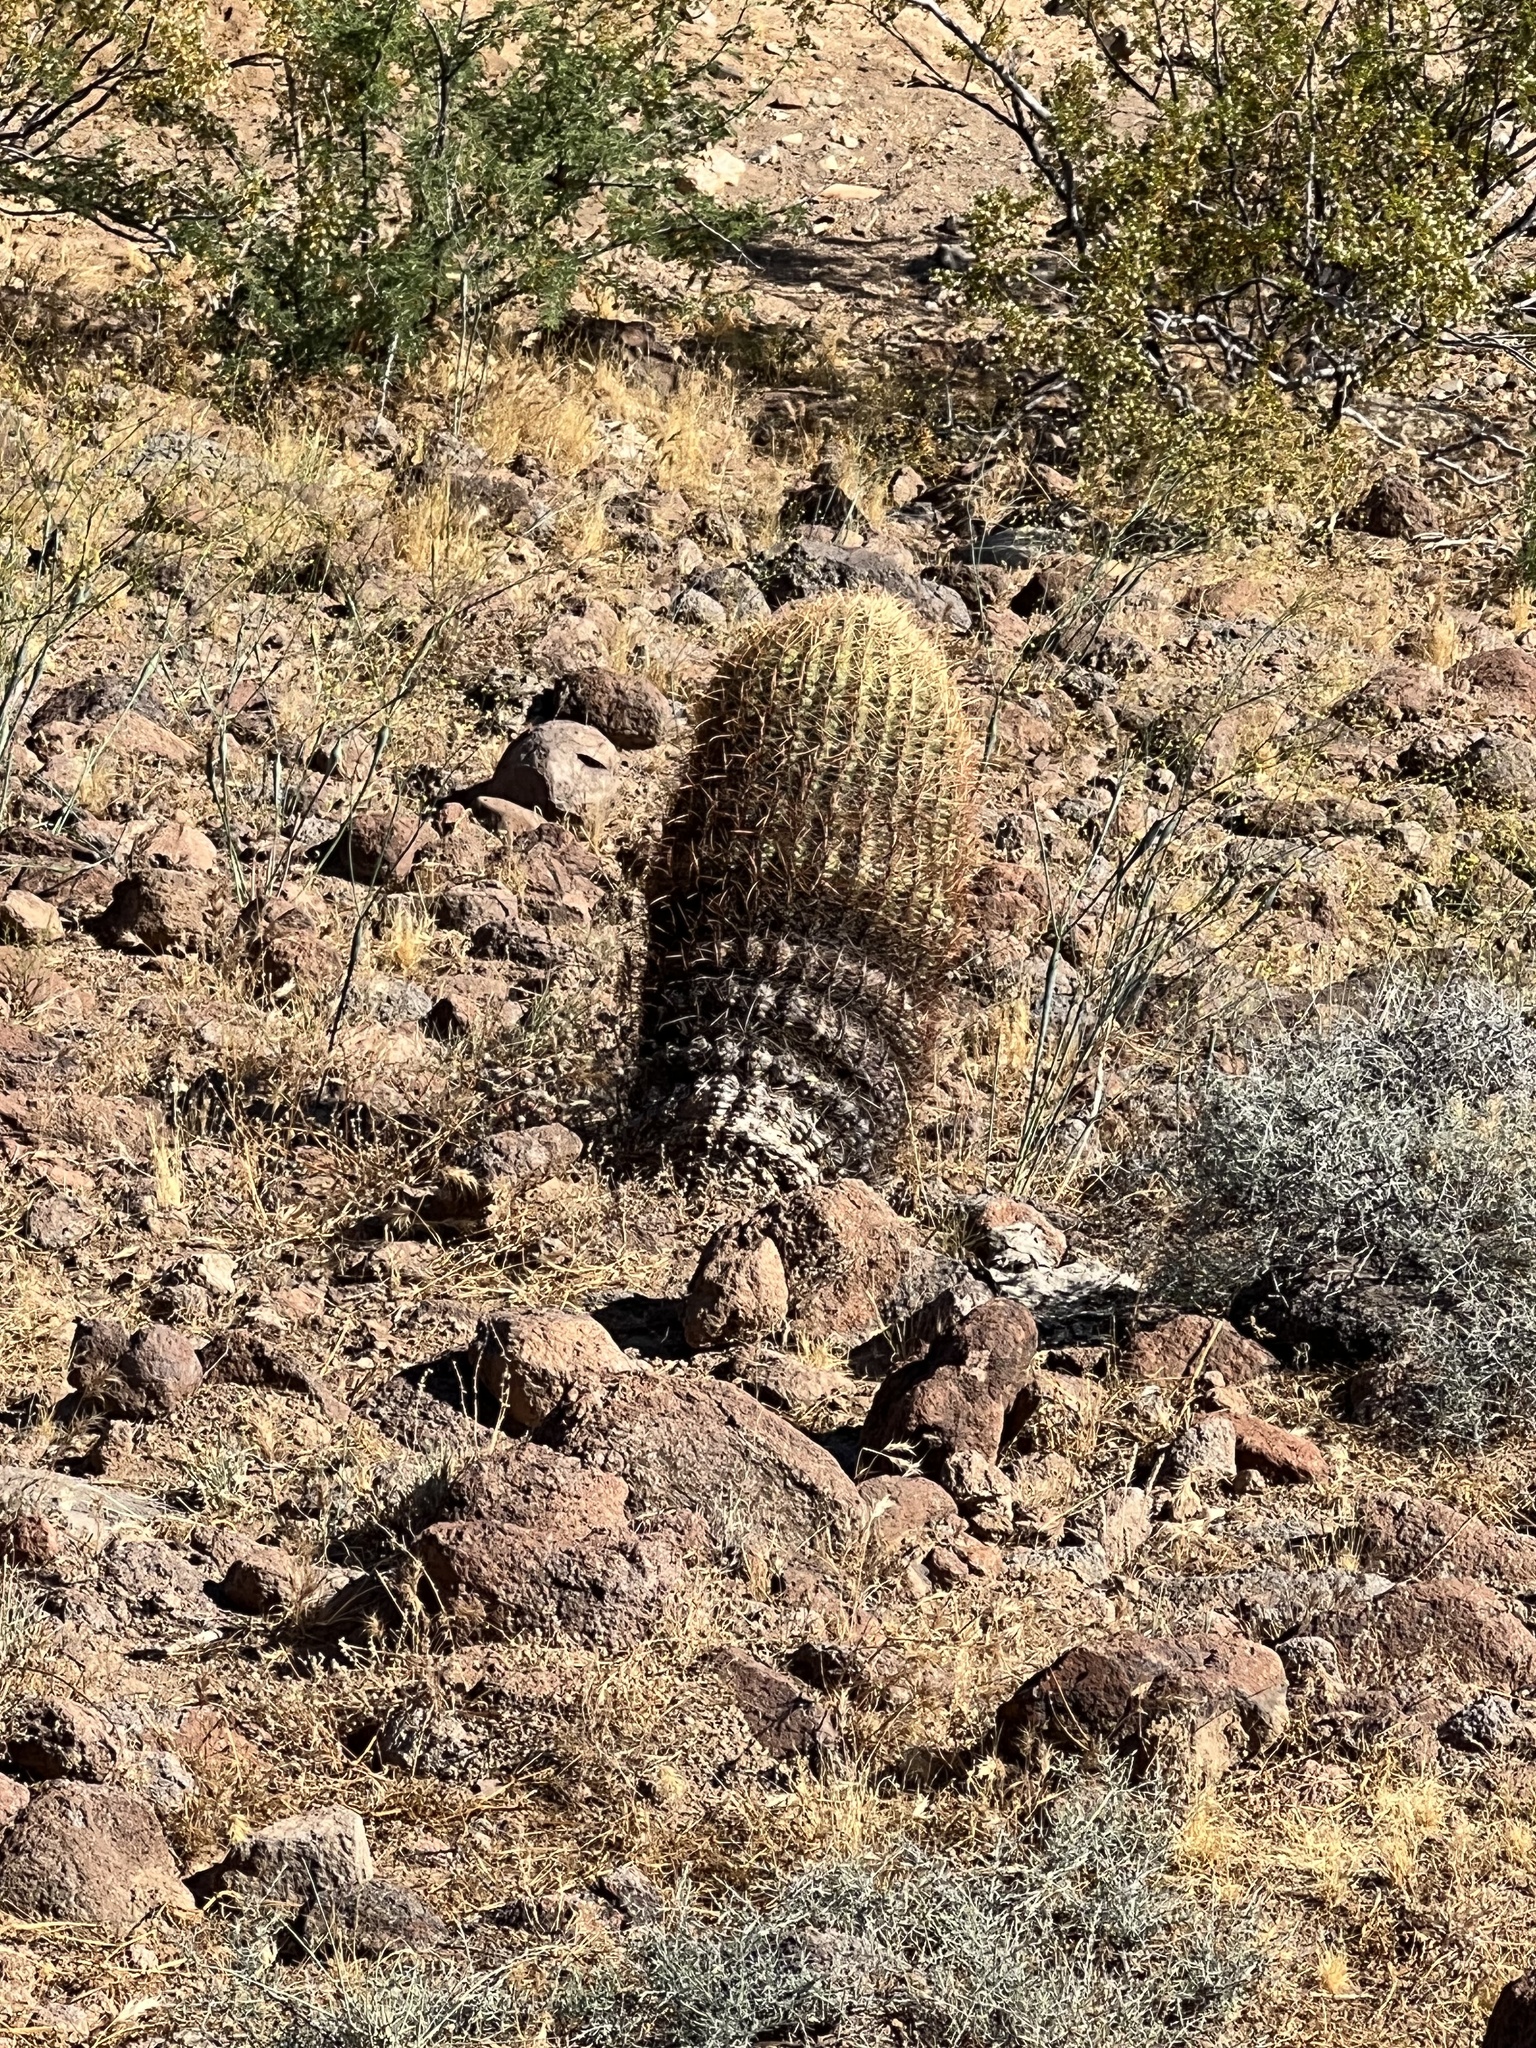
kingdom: Plantae
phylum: Tracheophyta
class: Magnoliopsida
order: Caryophyllales
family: Cactaceae
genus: Ferocactus
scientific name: Ferocactus cylindraceus
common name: California barrel cactus
